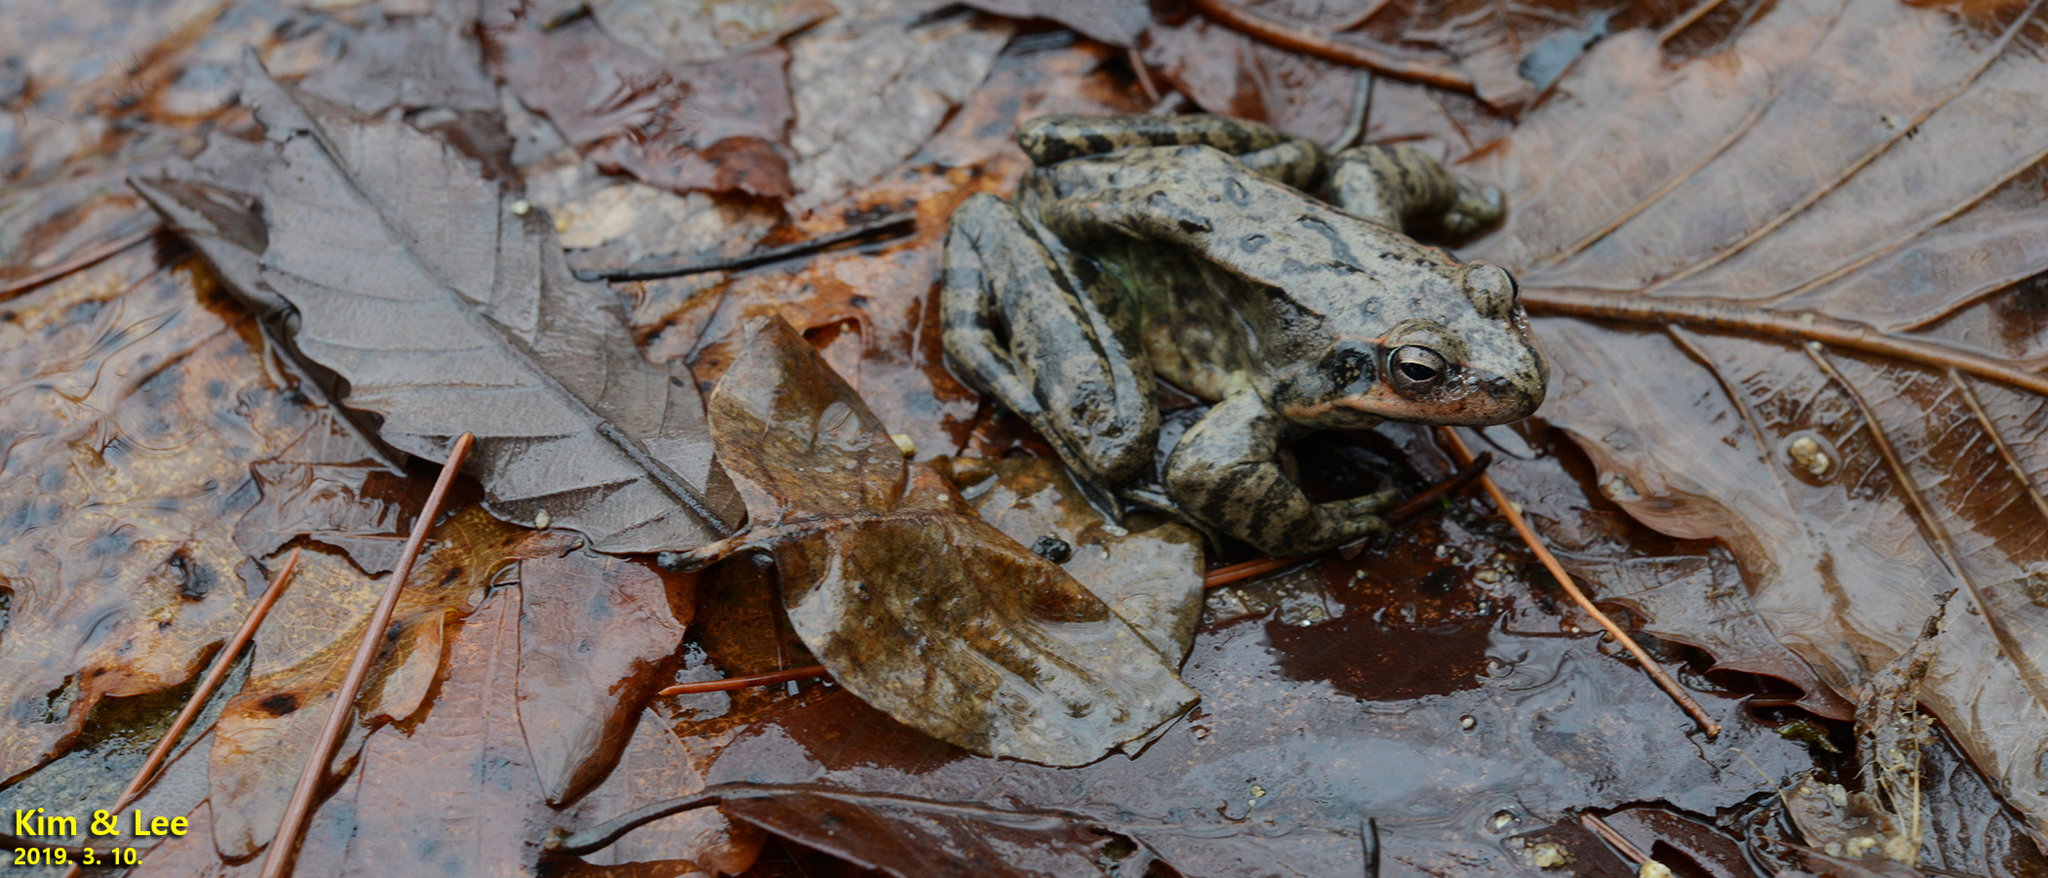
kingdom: Animalia
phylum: Chordata
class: Amphibia
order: Anura
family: Ranidae
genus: Rana
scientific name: Rana dybowskii
